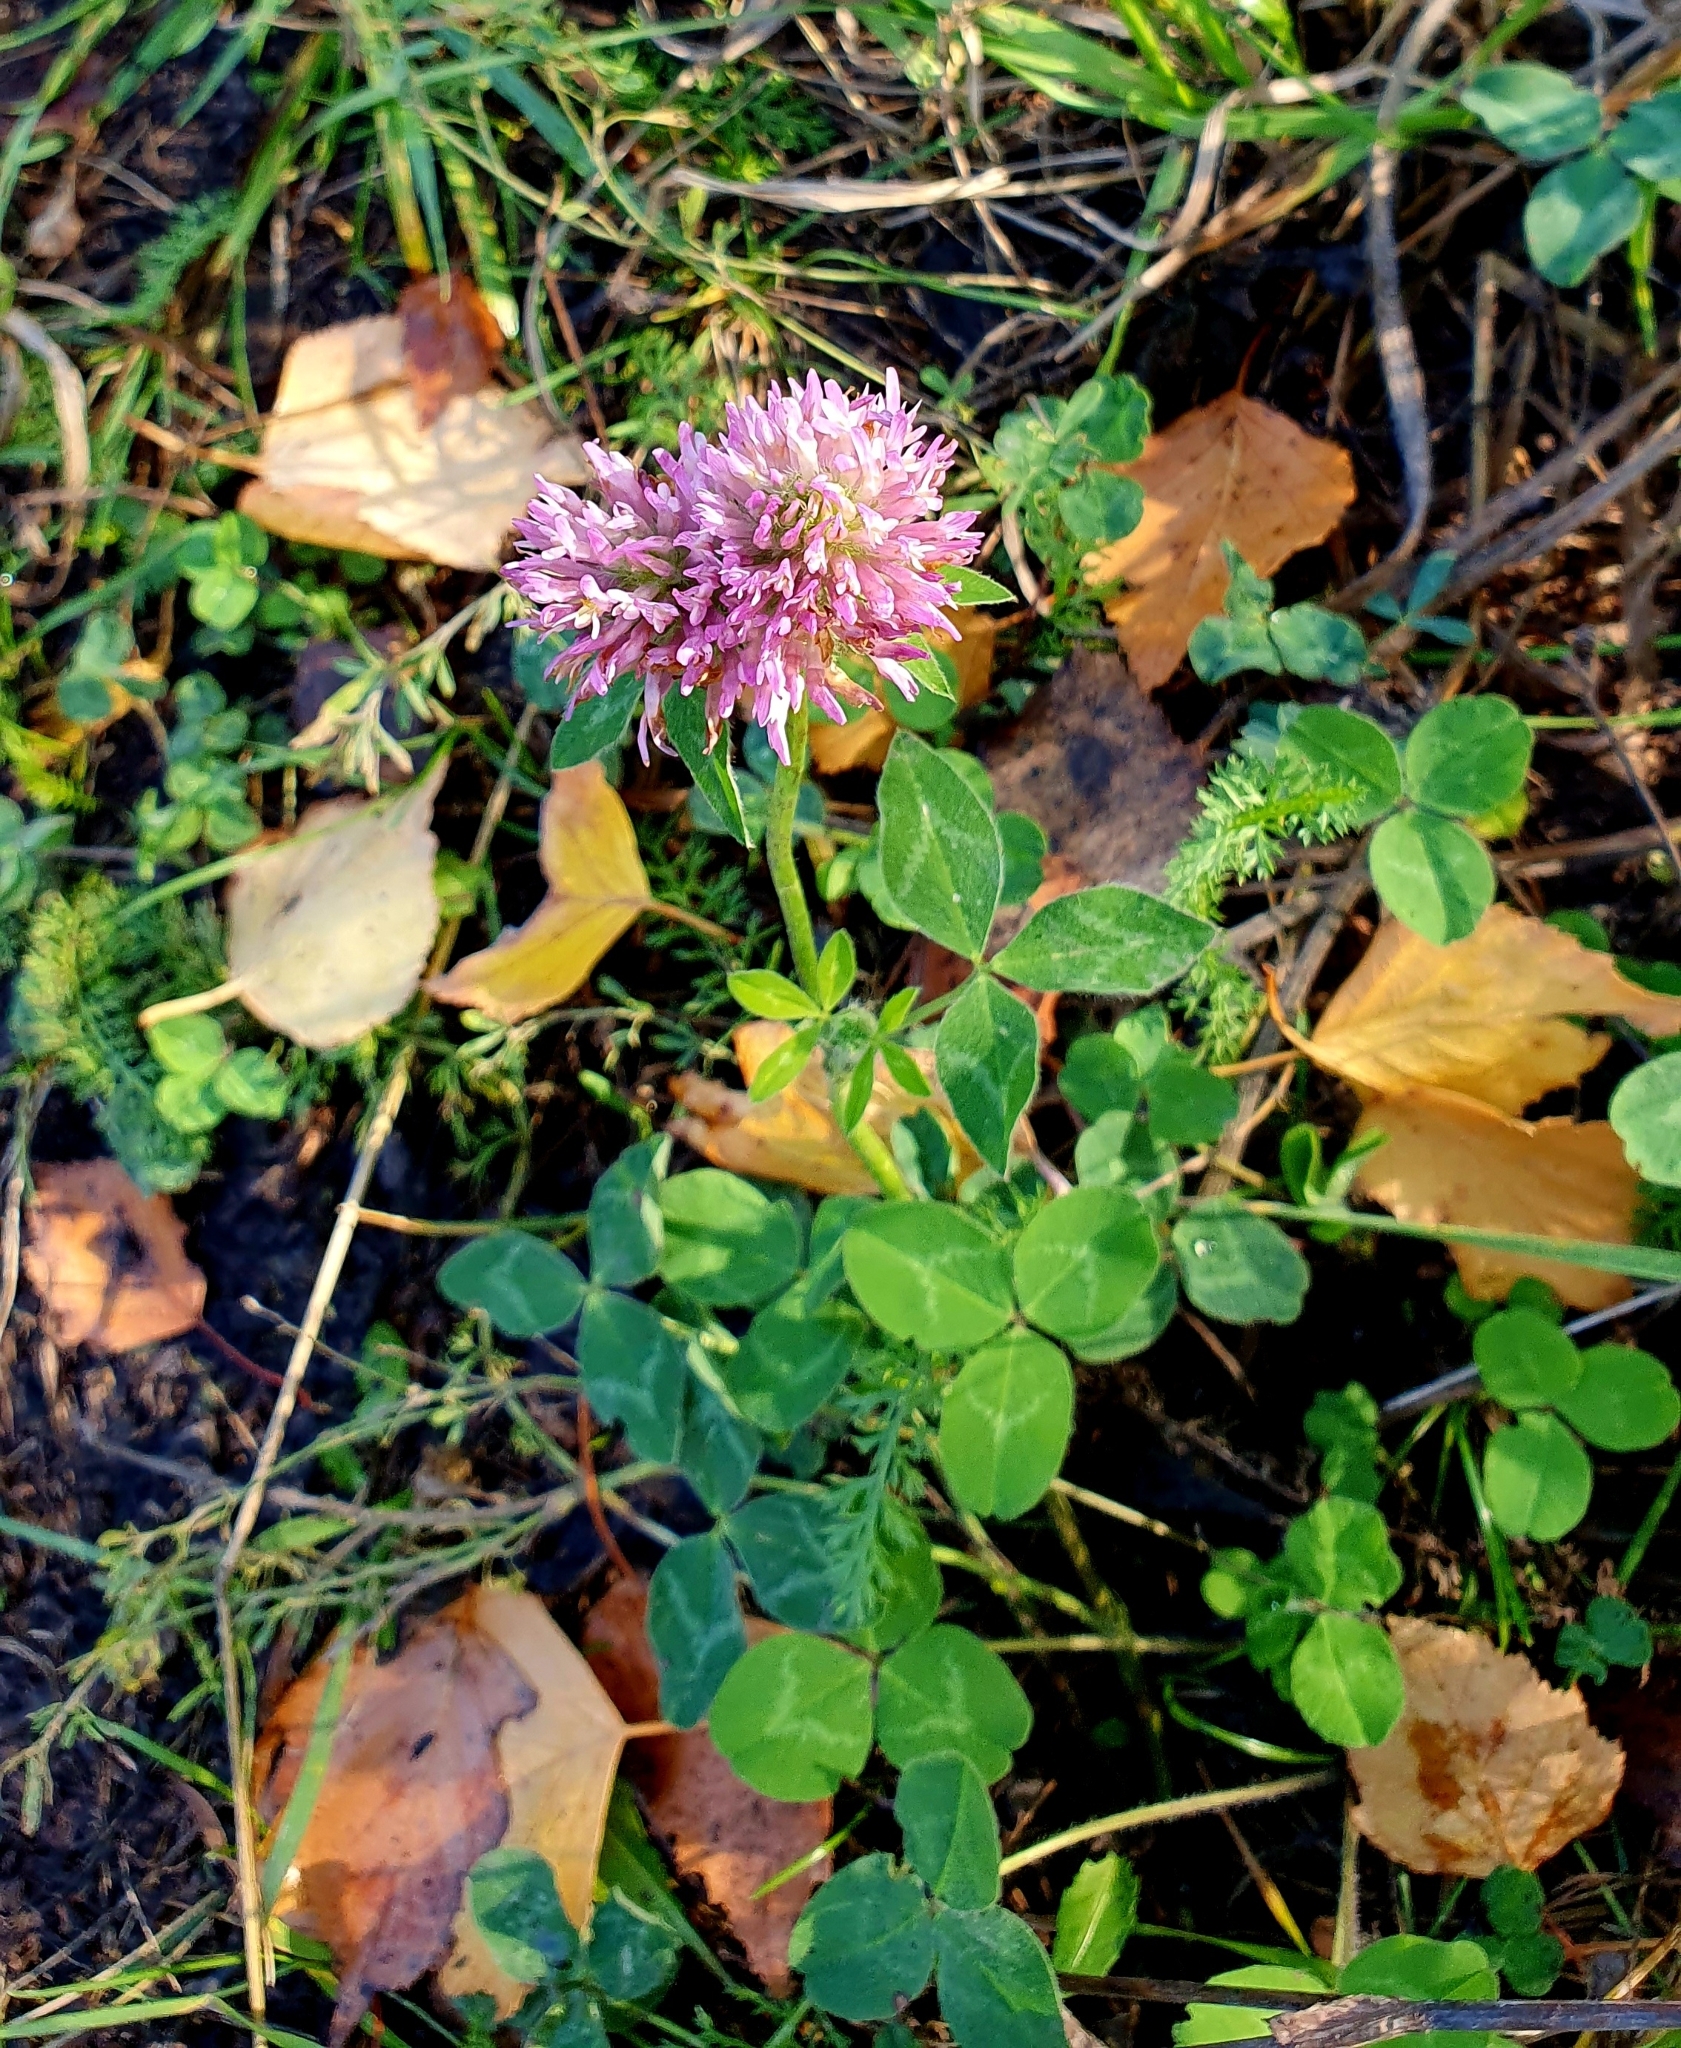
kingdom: Plantae
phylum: Tracheophyta
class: Magnoliopsida
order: Fabales
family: Fabaceae
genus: Trifolium
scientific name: Trifolium pratense
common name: Red clover
